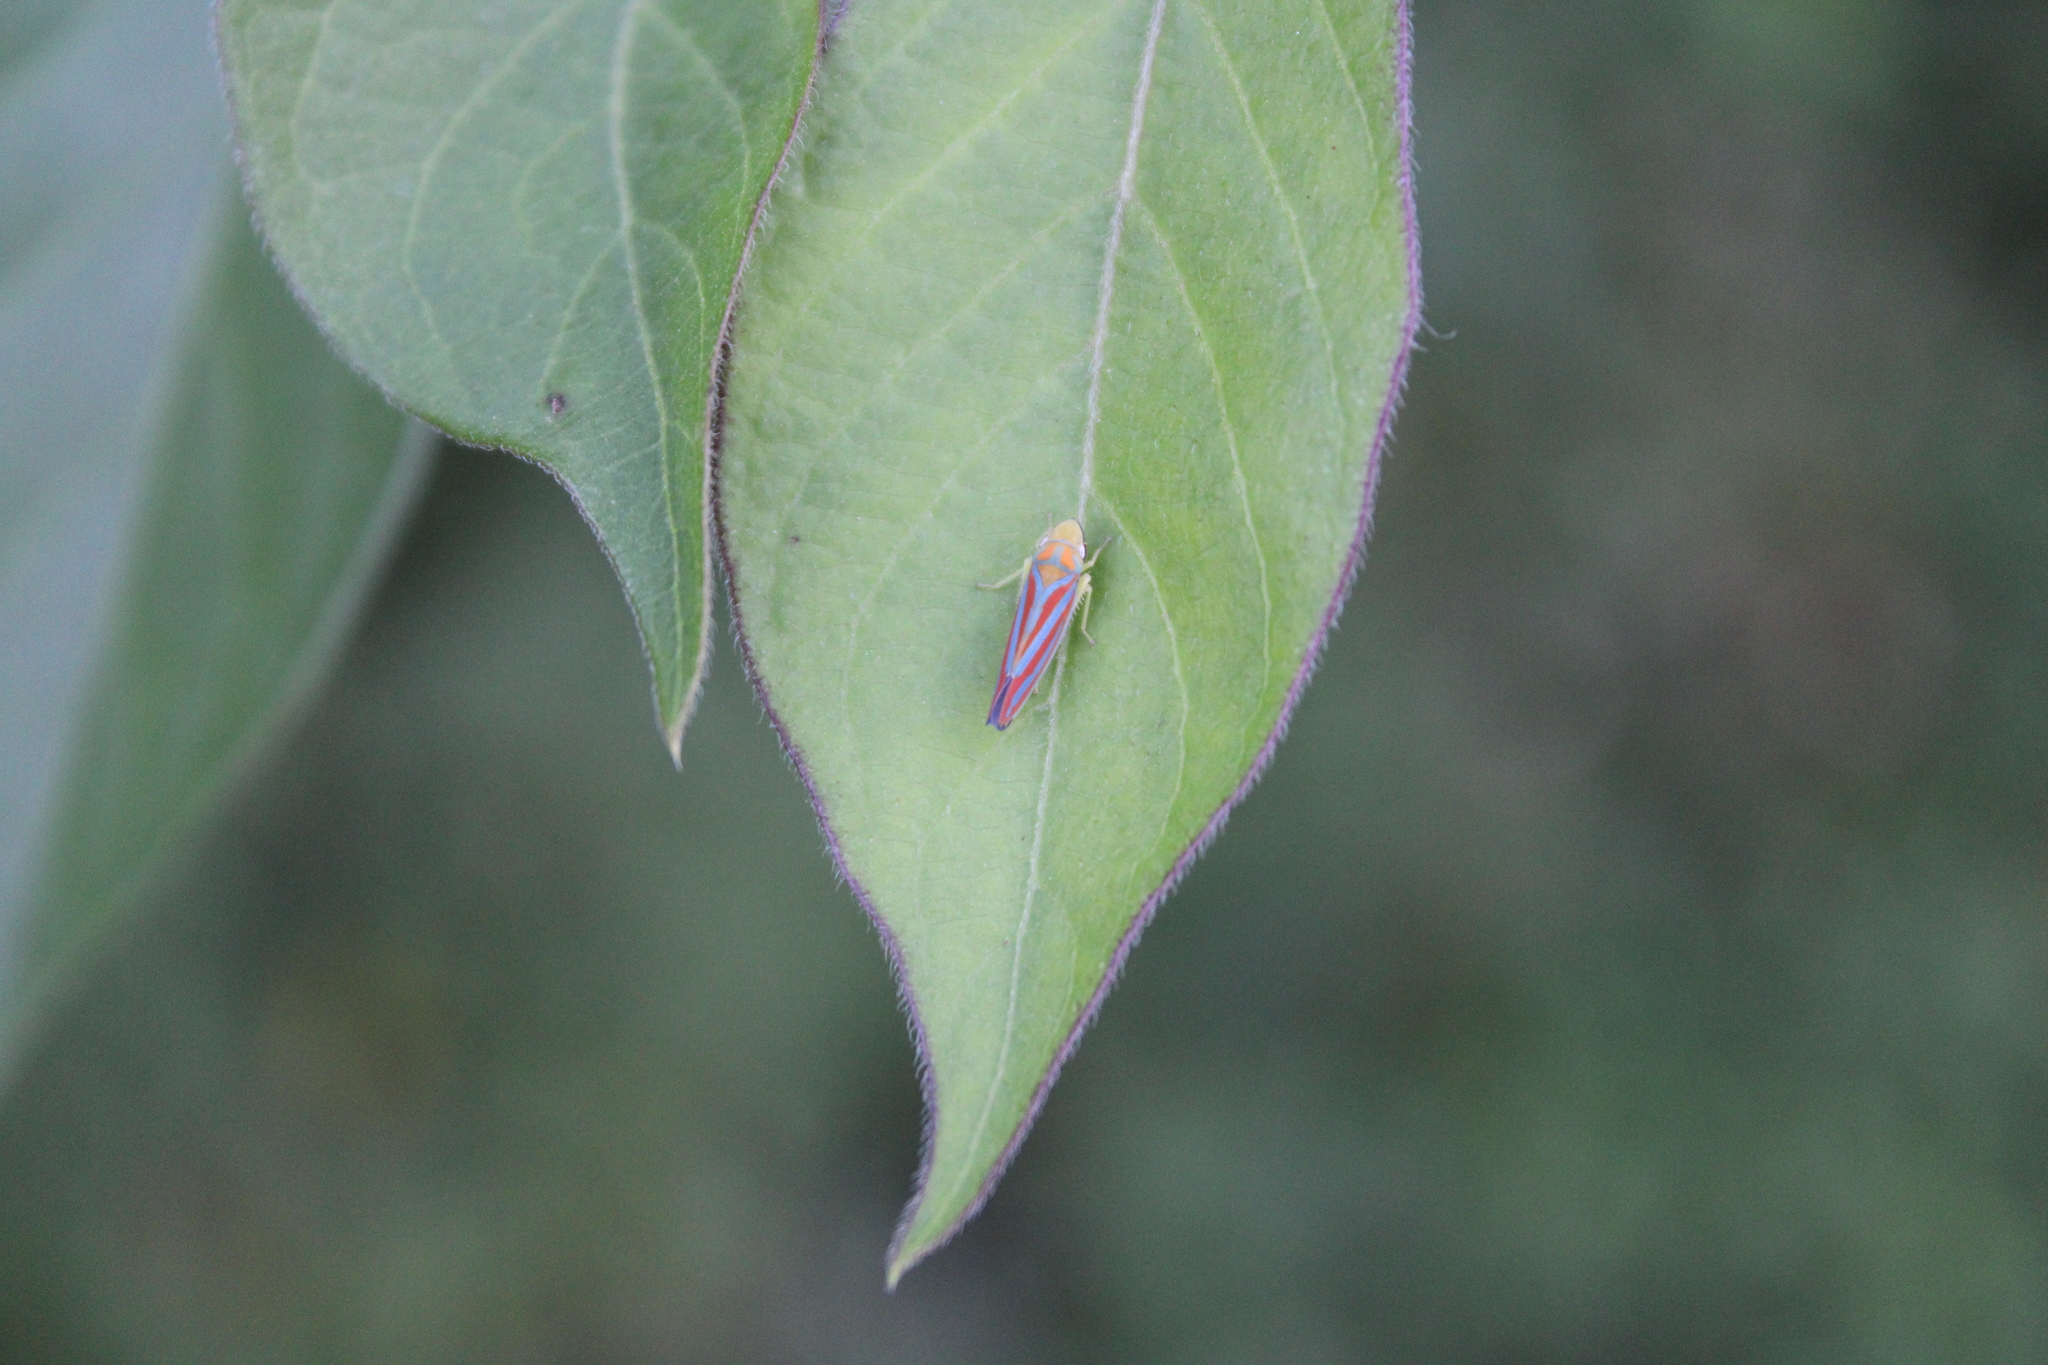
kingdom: Animalia
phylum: Arthropoda
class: Insecta
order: Hemiptera
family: Cicadellidae
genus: Graphocephala
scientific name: Graphocephala coccinea
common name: Candy-striped leafhopper
